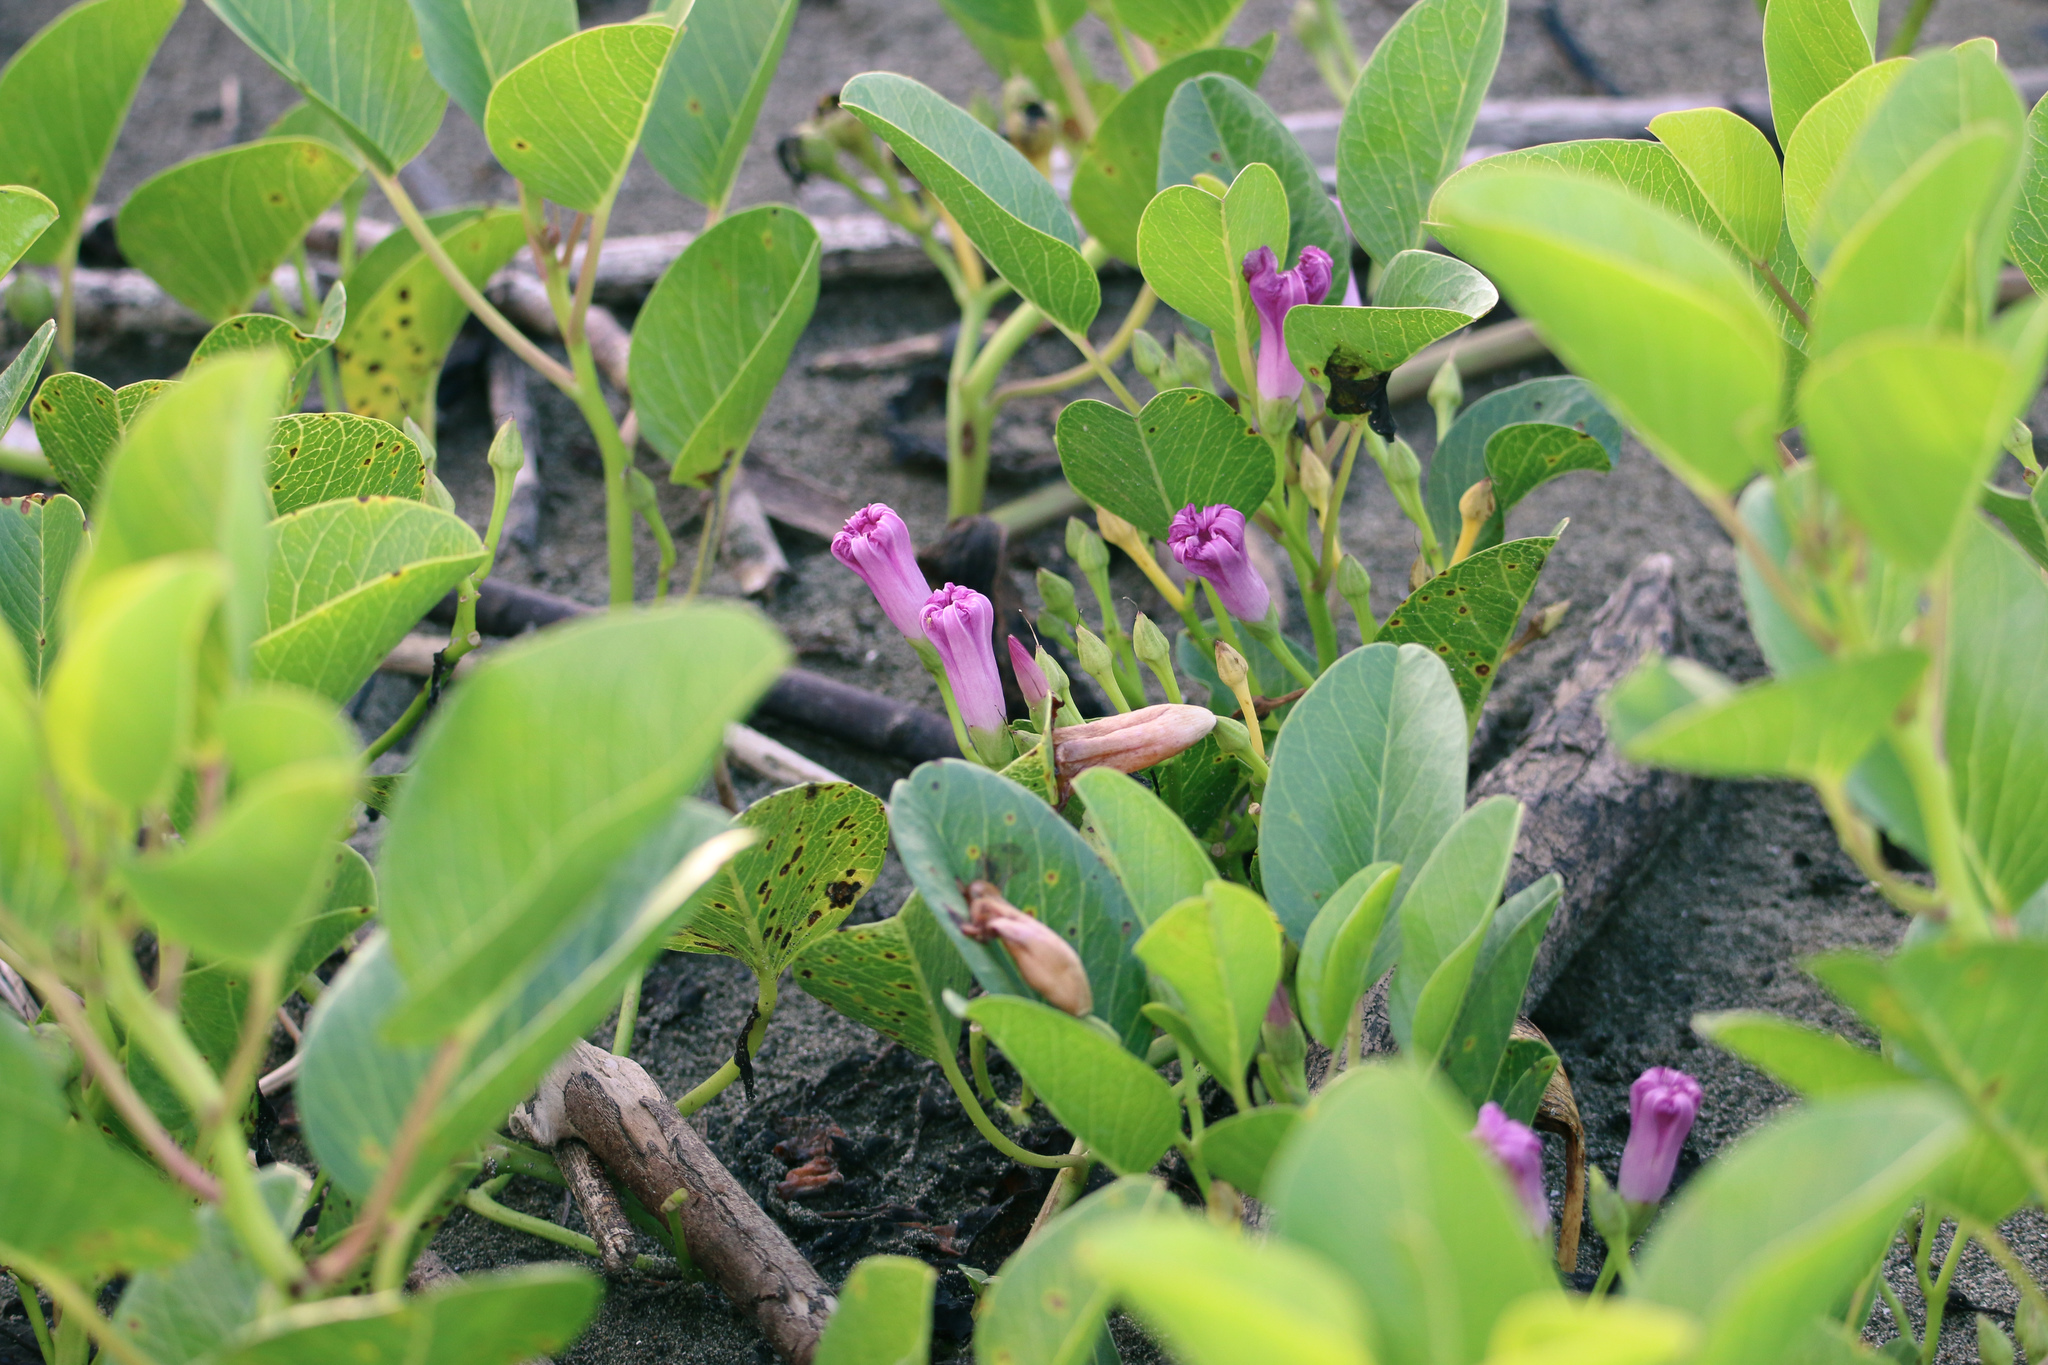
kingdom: Plantae
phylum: Tracheophyta
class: Magnoliopsida
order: Solanales
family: Convolvulaceae
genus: Ipomoea
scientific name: Ipomoea pes-caprae
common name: Beach morning glory
